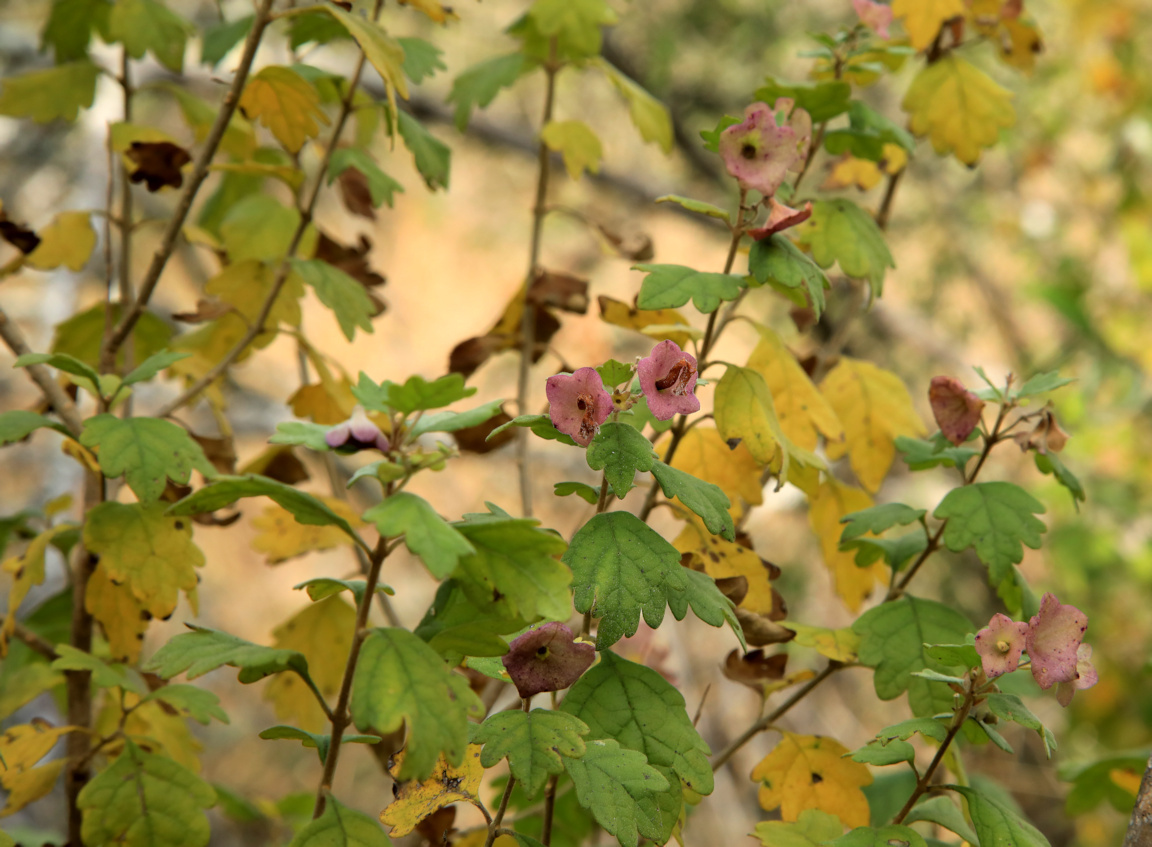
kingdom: Plantae
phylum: Tracheophyta
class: Magnoliopsida
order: Lamiales
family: Lamiaceae
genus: Karomia
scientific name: Karomia speciosa
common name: Southern chinese-hats
